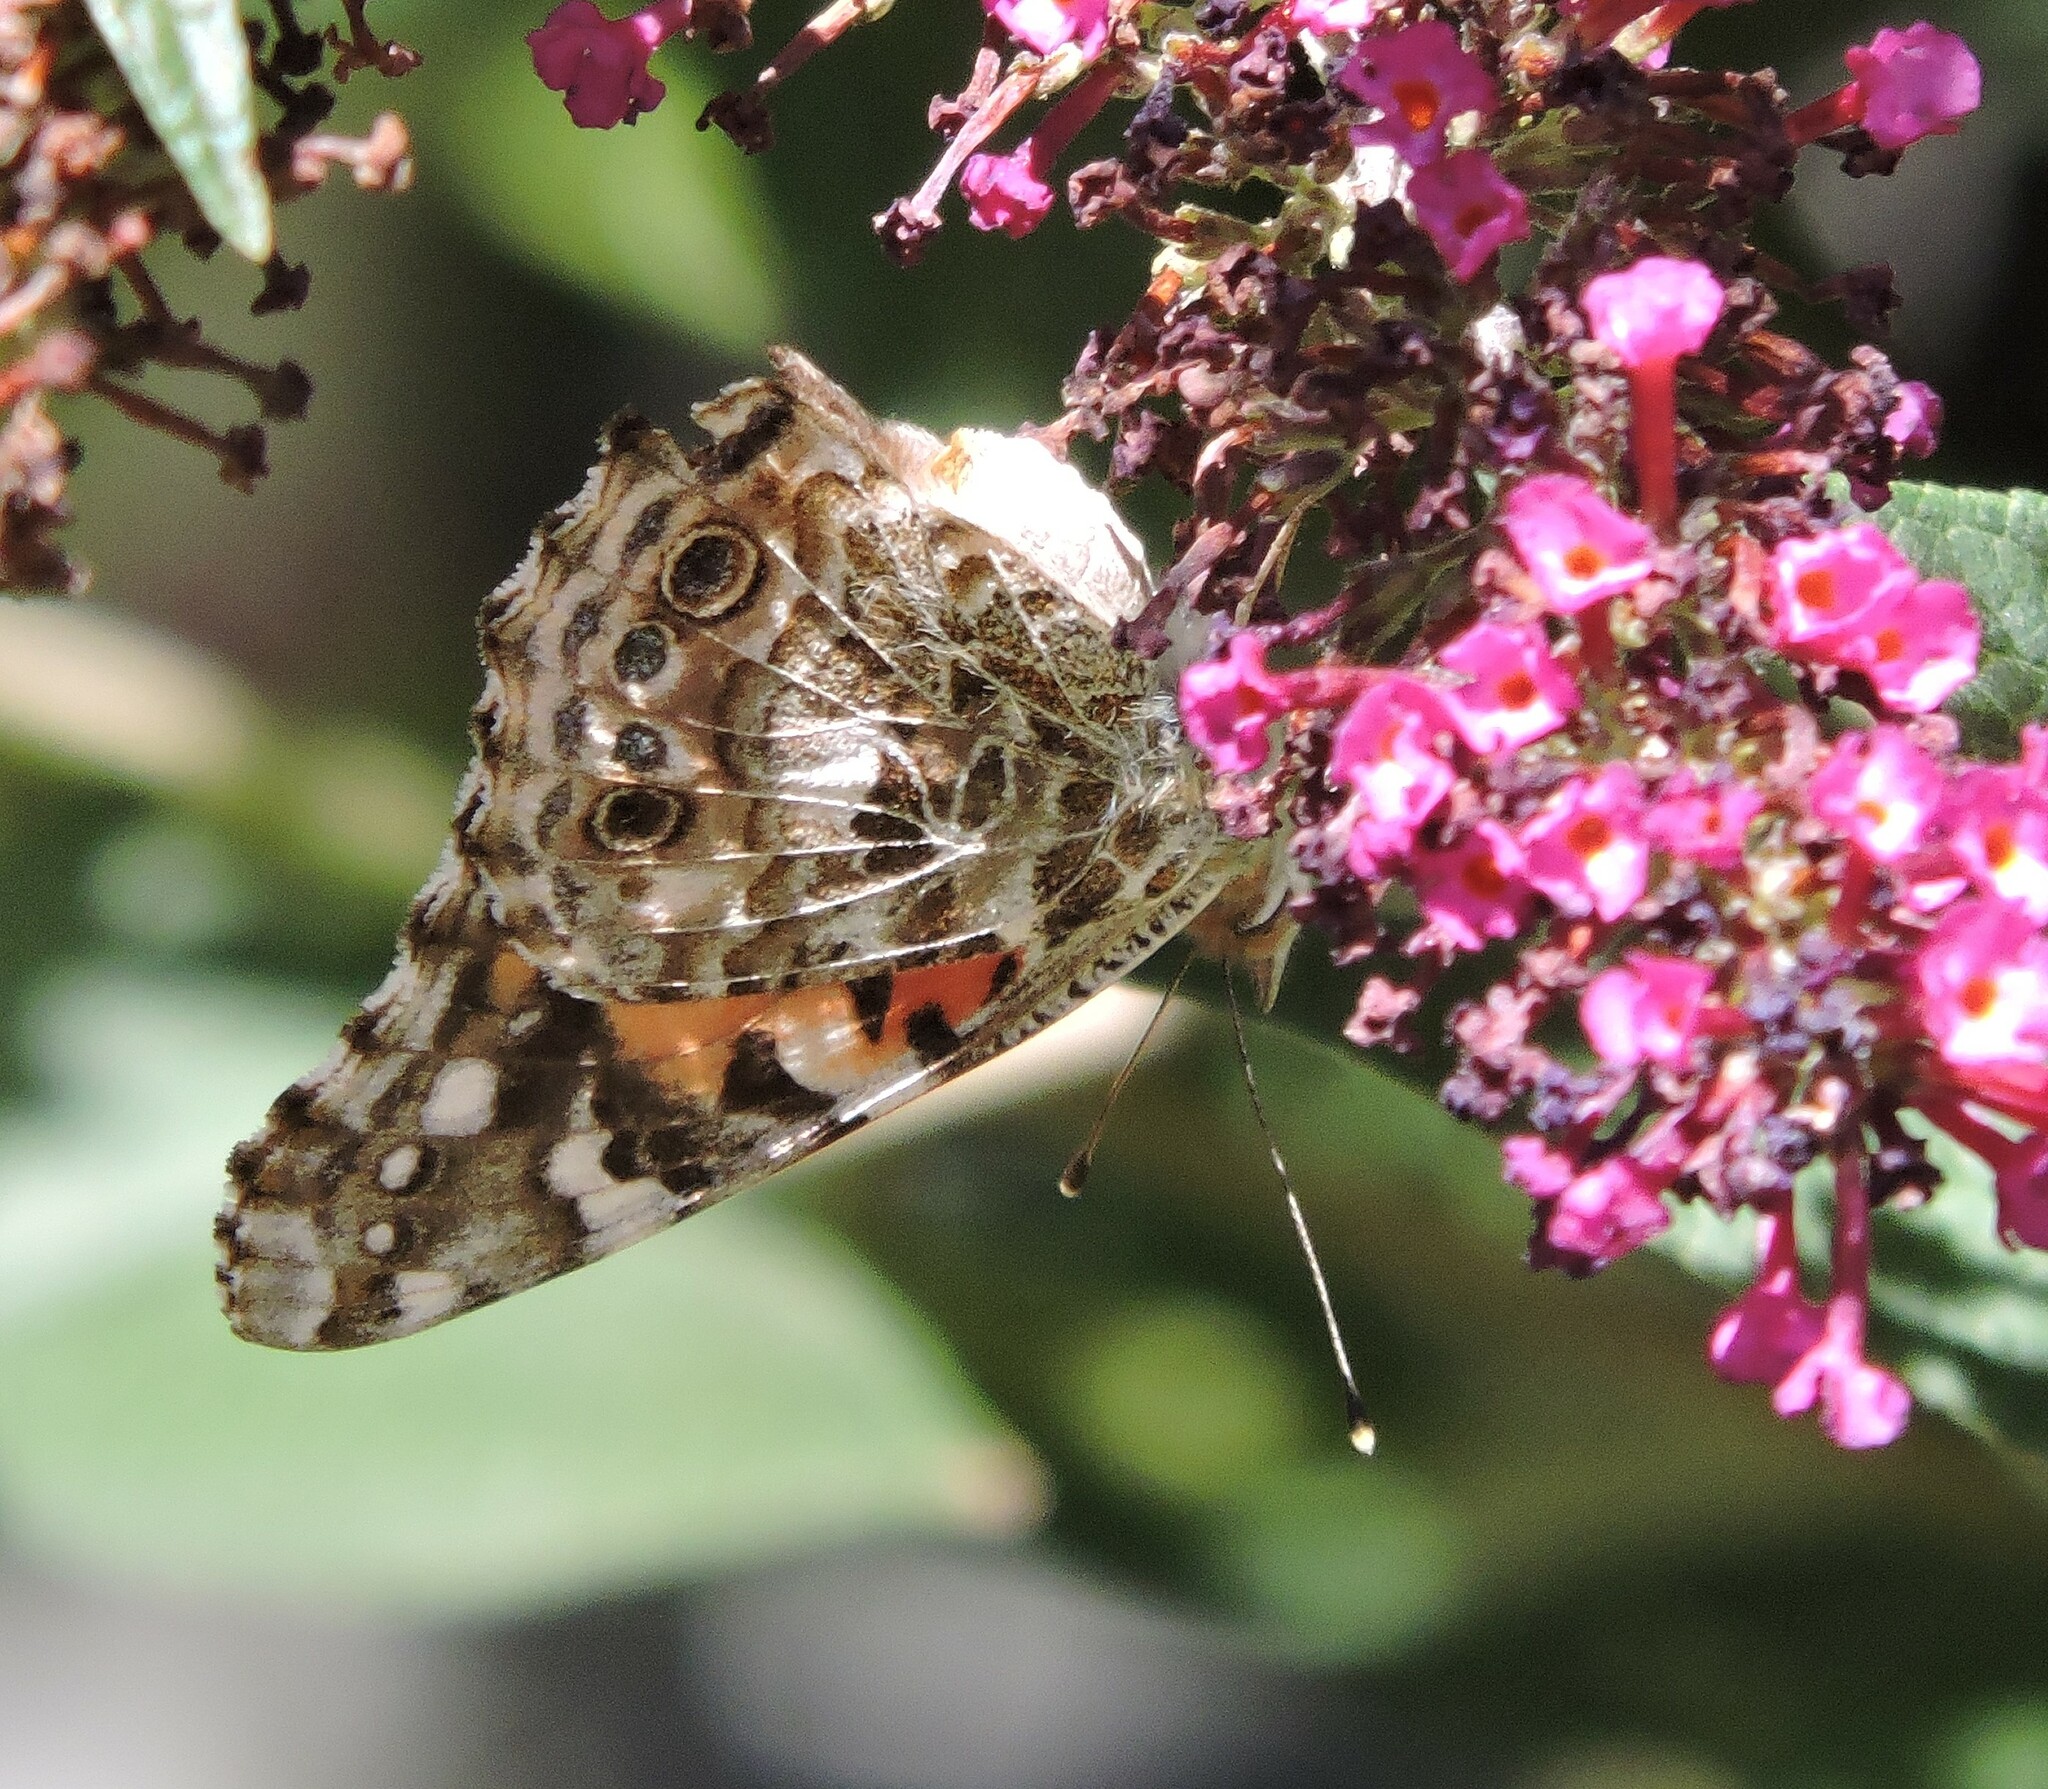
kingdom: Animalia
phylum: Arthropoda
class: Insecta
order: Lepidoptera
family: Nymphalidae
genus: Vanessa
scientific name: Vanessa cardui
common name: Painted lady
